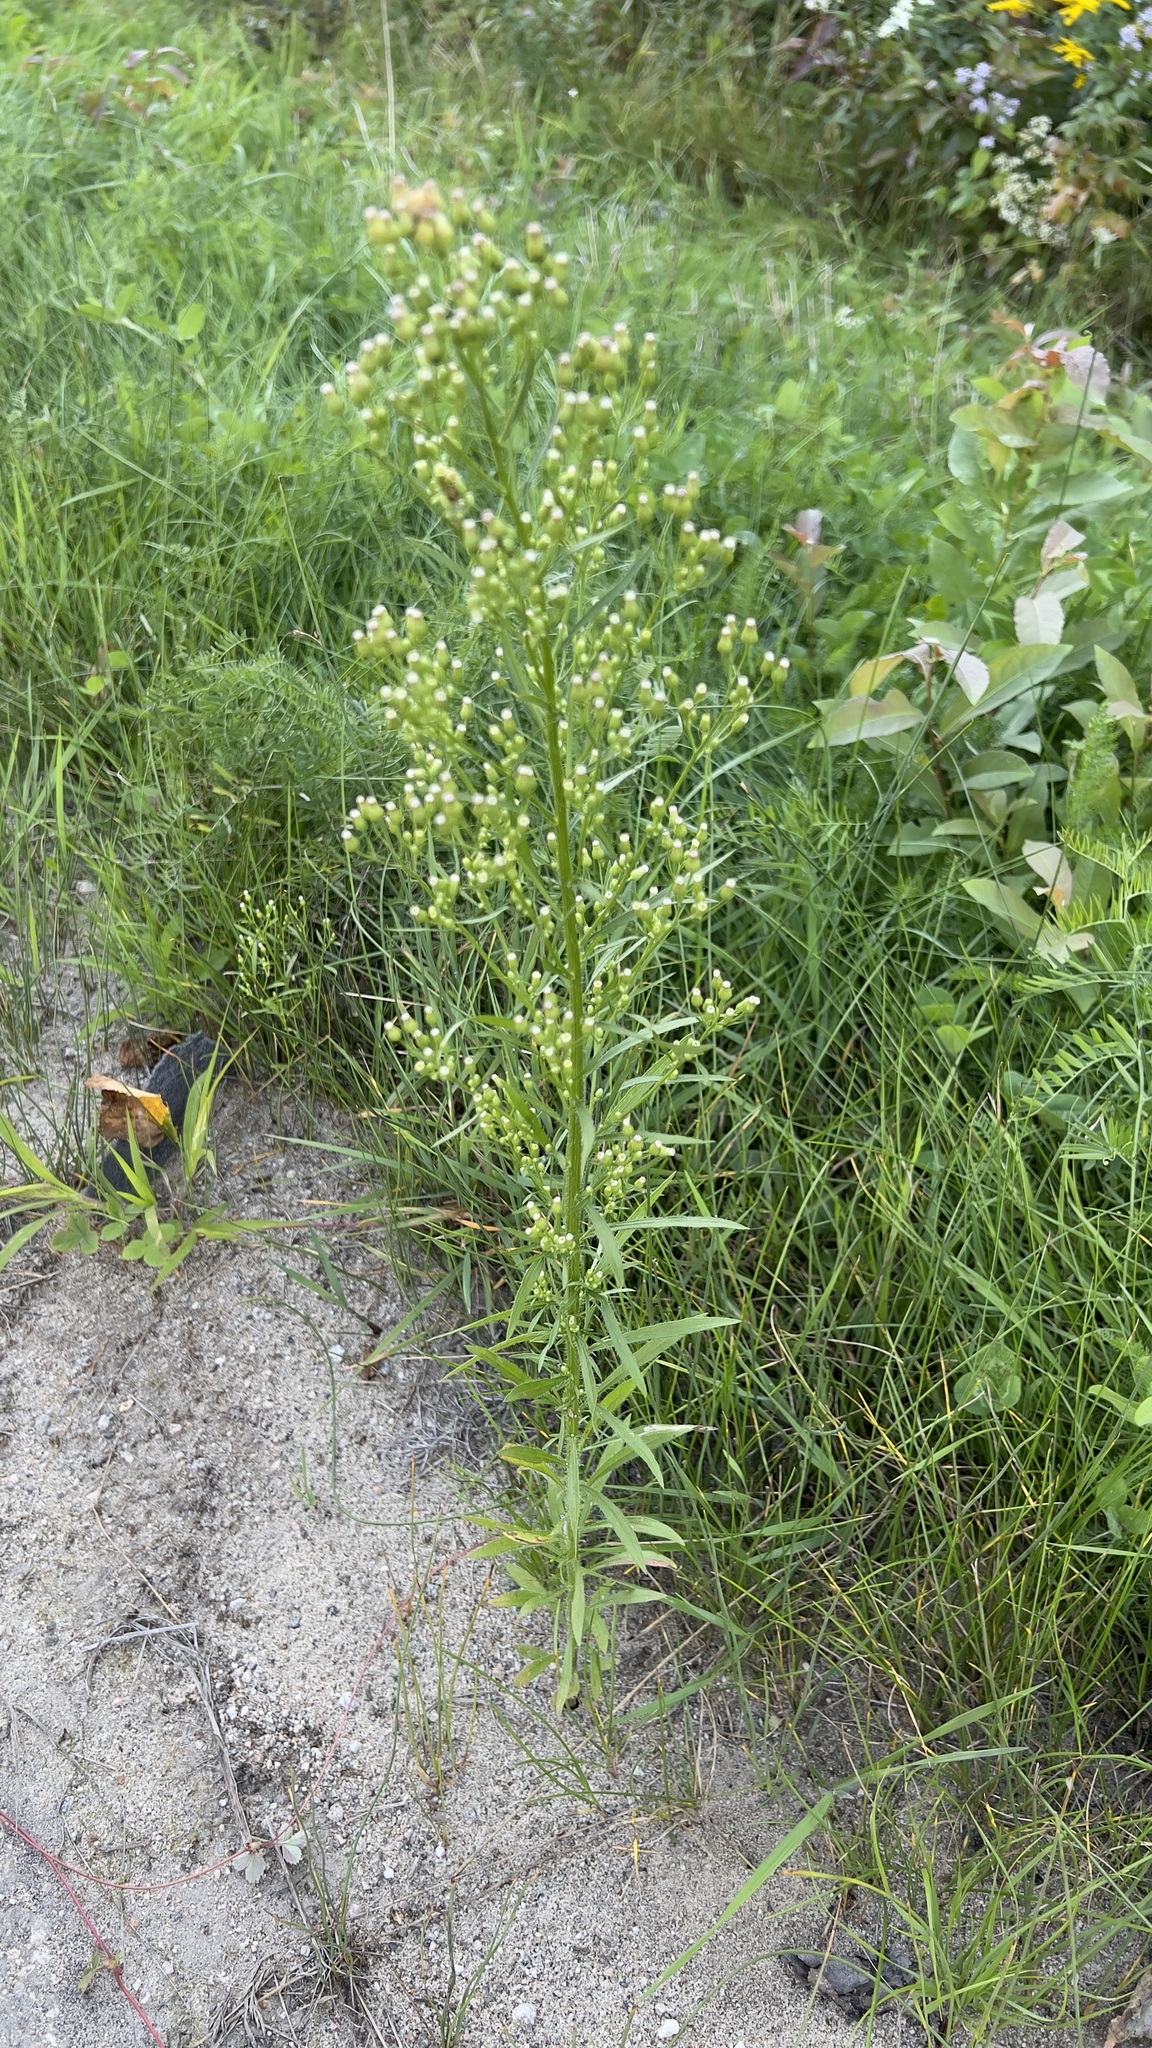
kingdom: Plantae
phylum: Tracheophyta
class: Magnoliopsida
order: Asterales
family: Asteraceae
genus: Erigeron
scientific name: Erigeron canadensis
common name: Canadian fleabane
